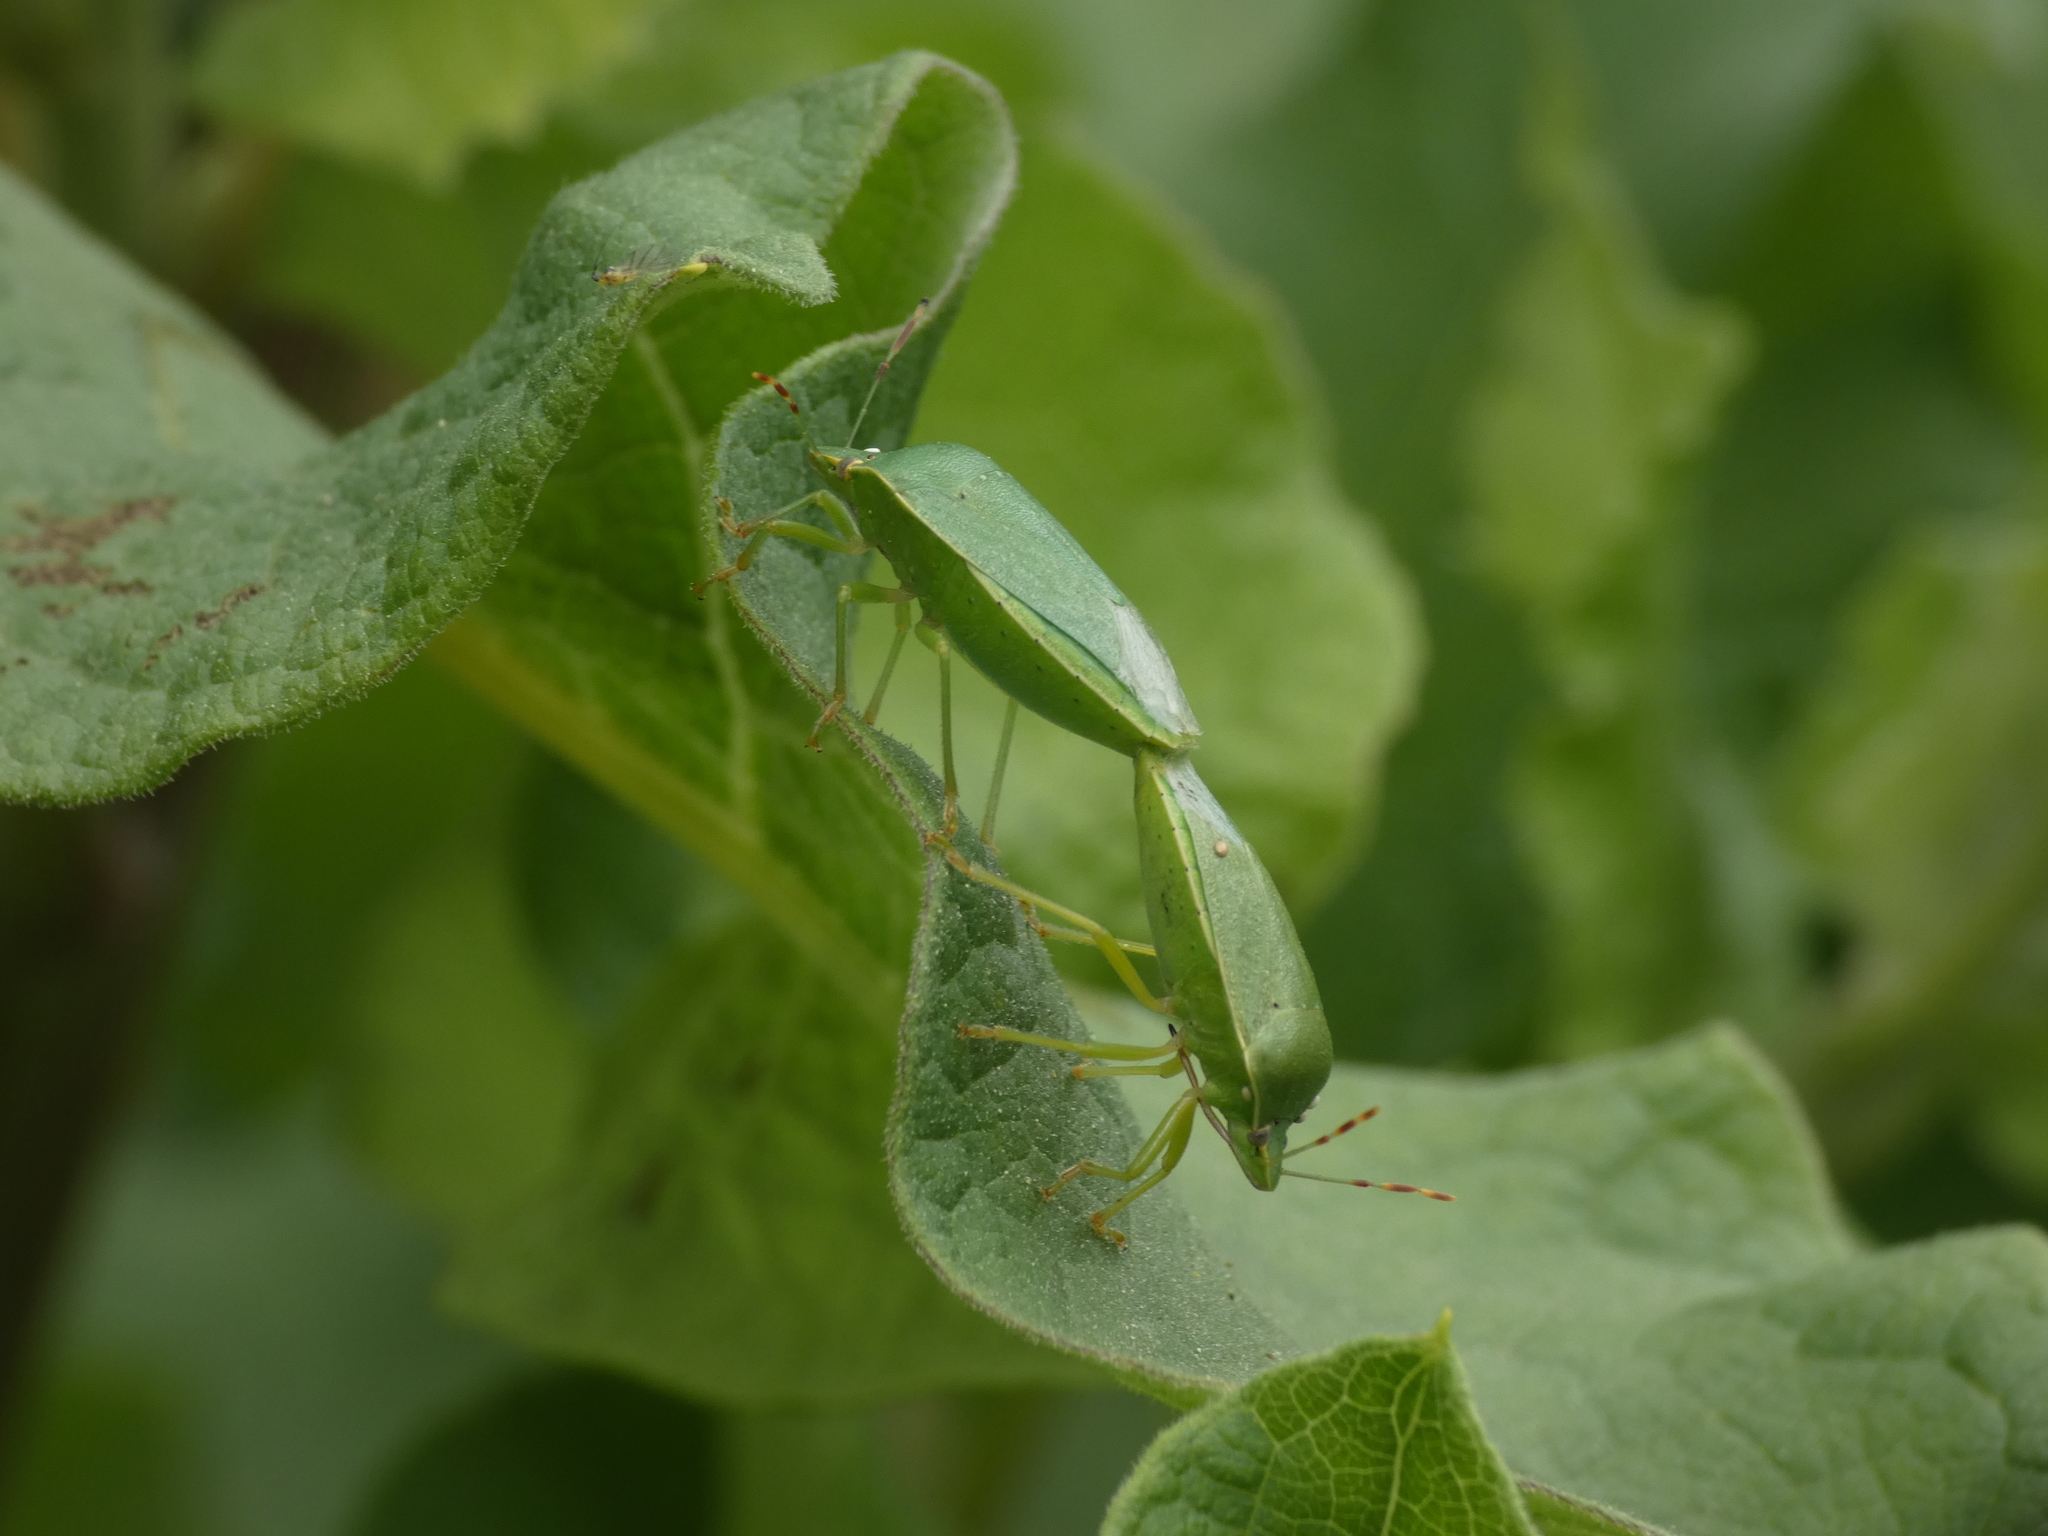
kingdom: Animalia
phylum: Arthropoda
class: Insecta
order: Hemiptera
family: Pentatomidae
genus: Nezara
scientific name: Nezara viridula
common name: Southern green stink bug
